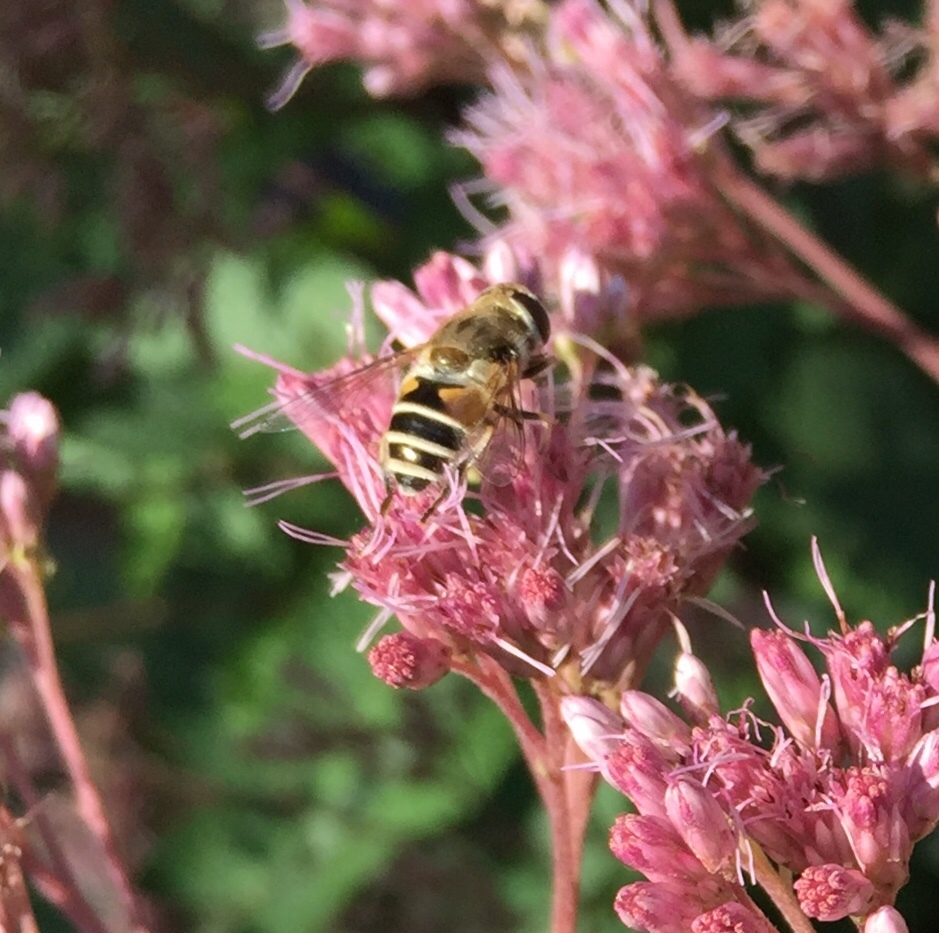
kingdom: Animalia
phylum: Arthropoda
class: Insecta
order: Diptera
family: Syrphidae
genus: Eristalis
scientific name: Eristalis arbustorum
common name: Hover fly
